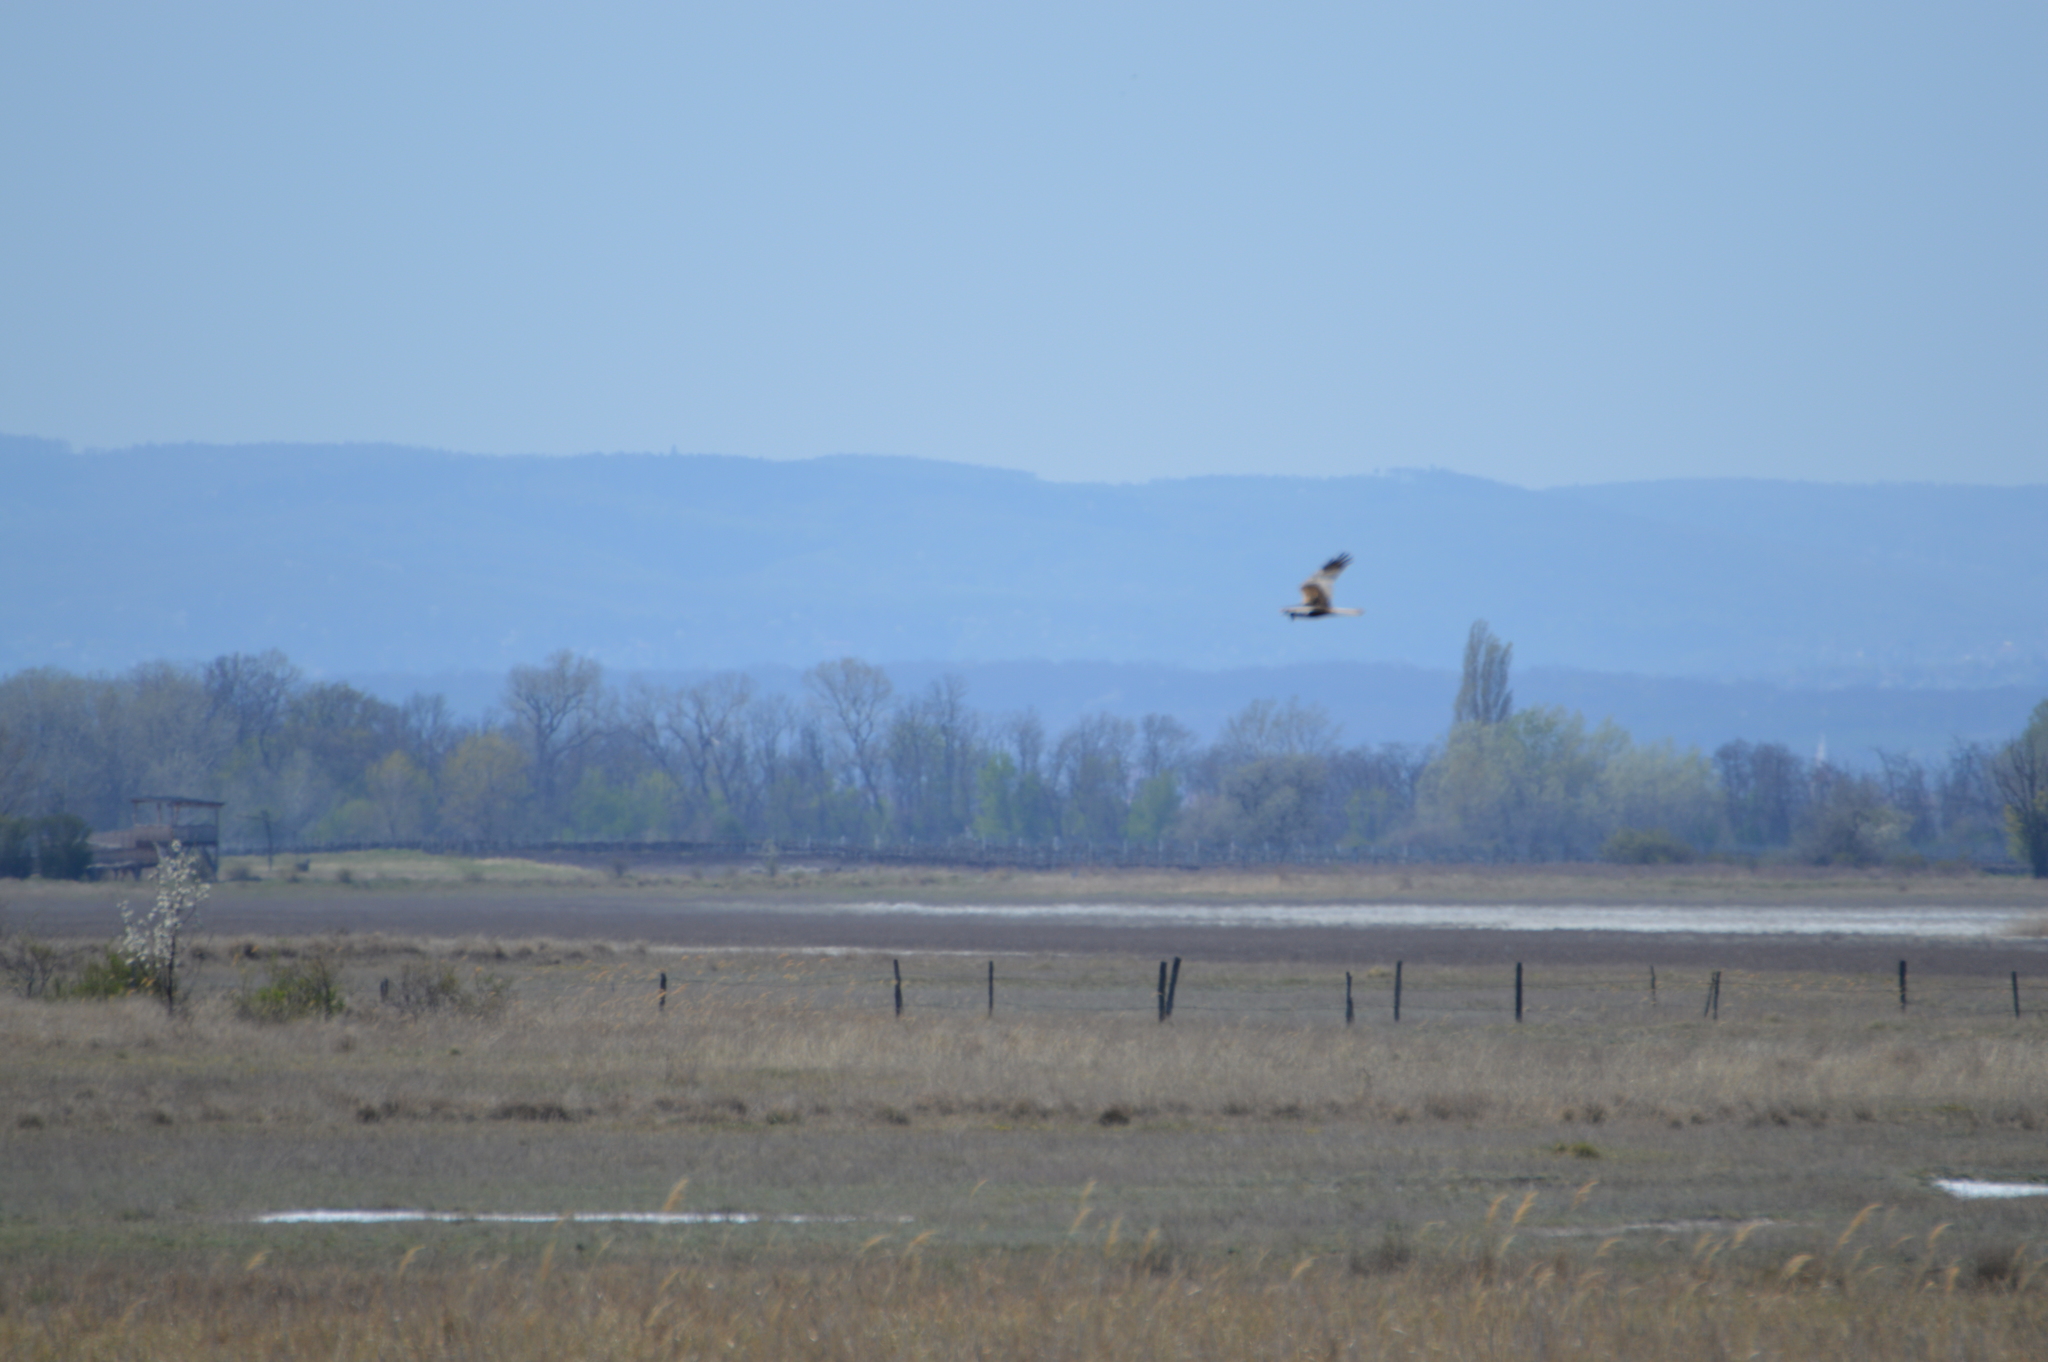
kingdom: Animalia
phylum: Chordata
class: Aves
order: Accipitriformes
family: Accipitridae
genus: Circus
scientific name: Circus aeruginosus
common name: Western marsh harrier
